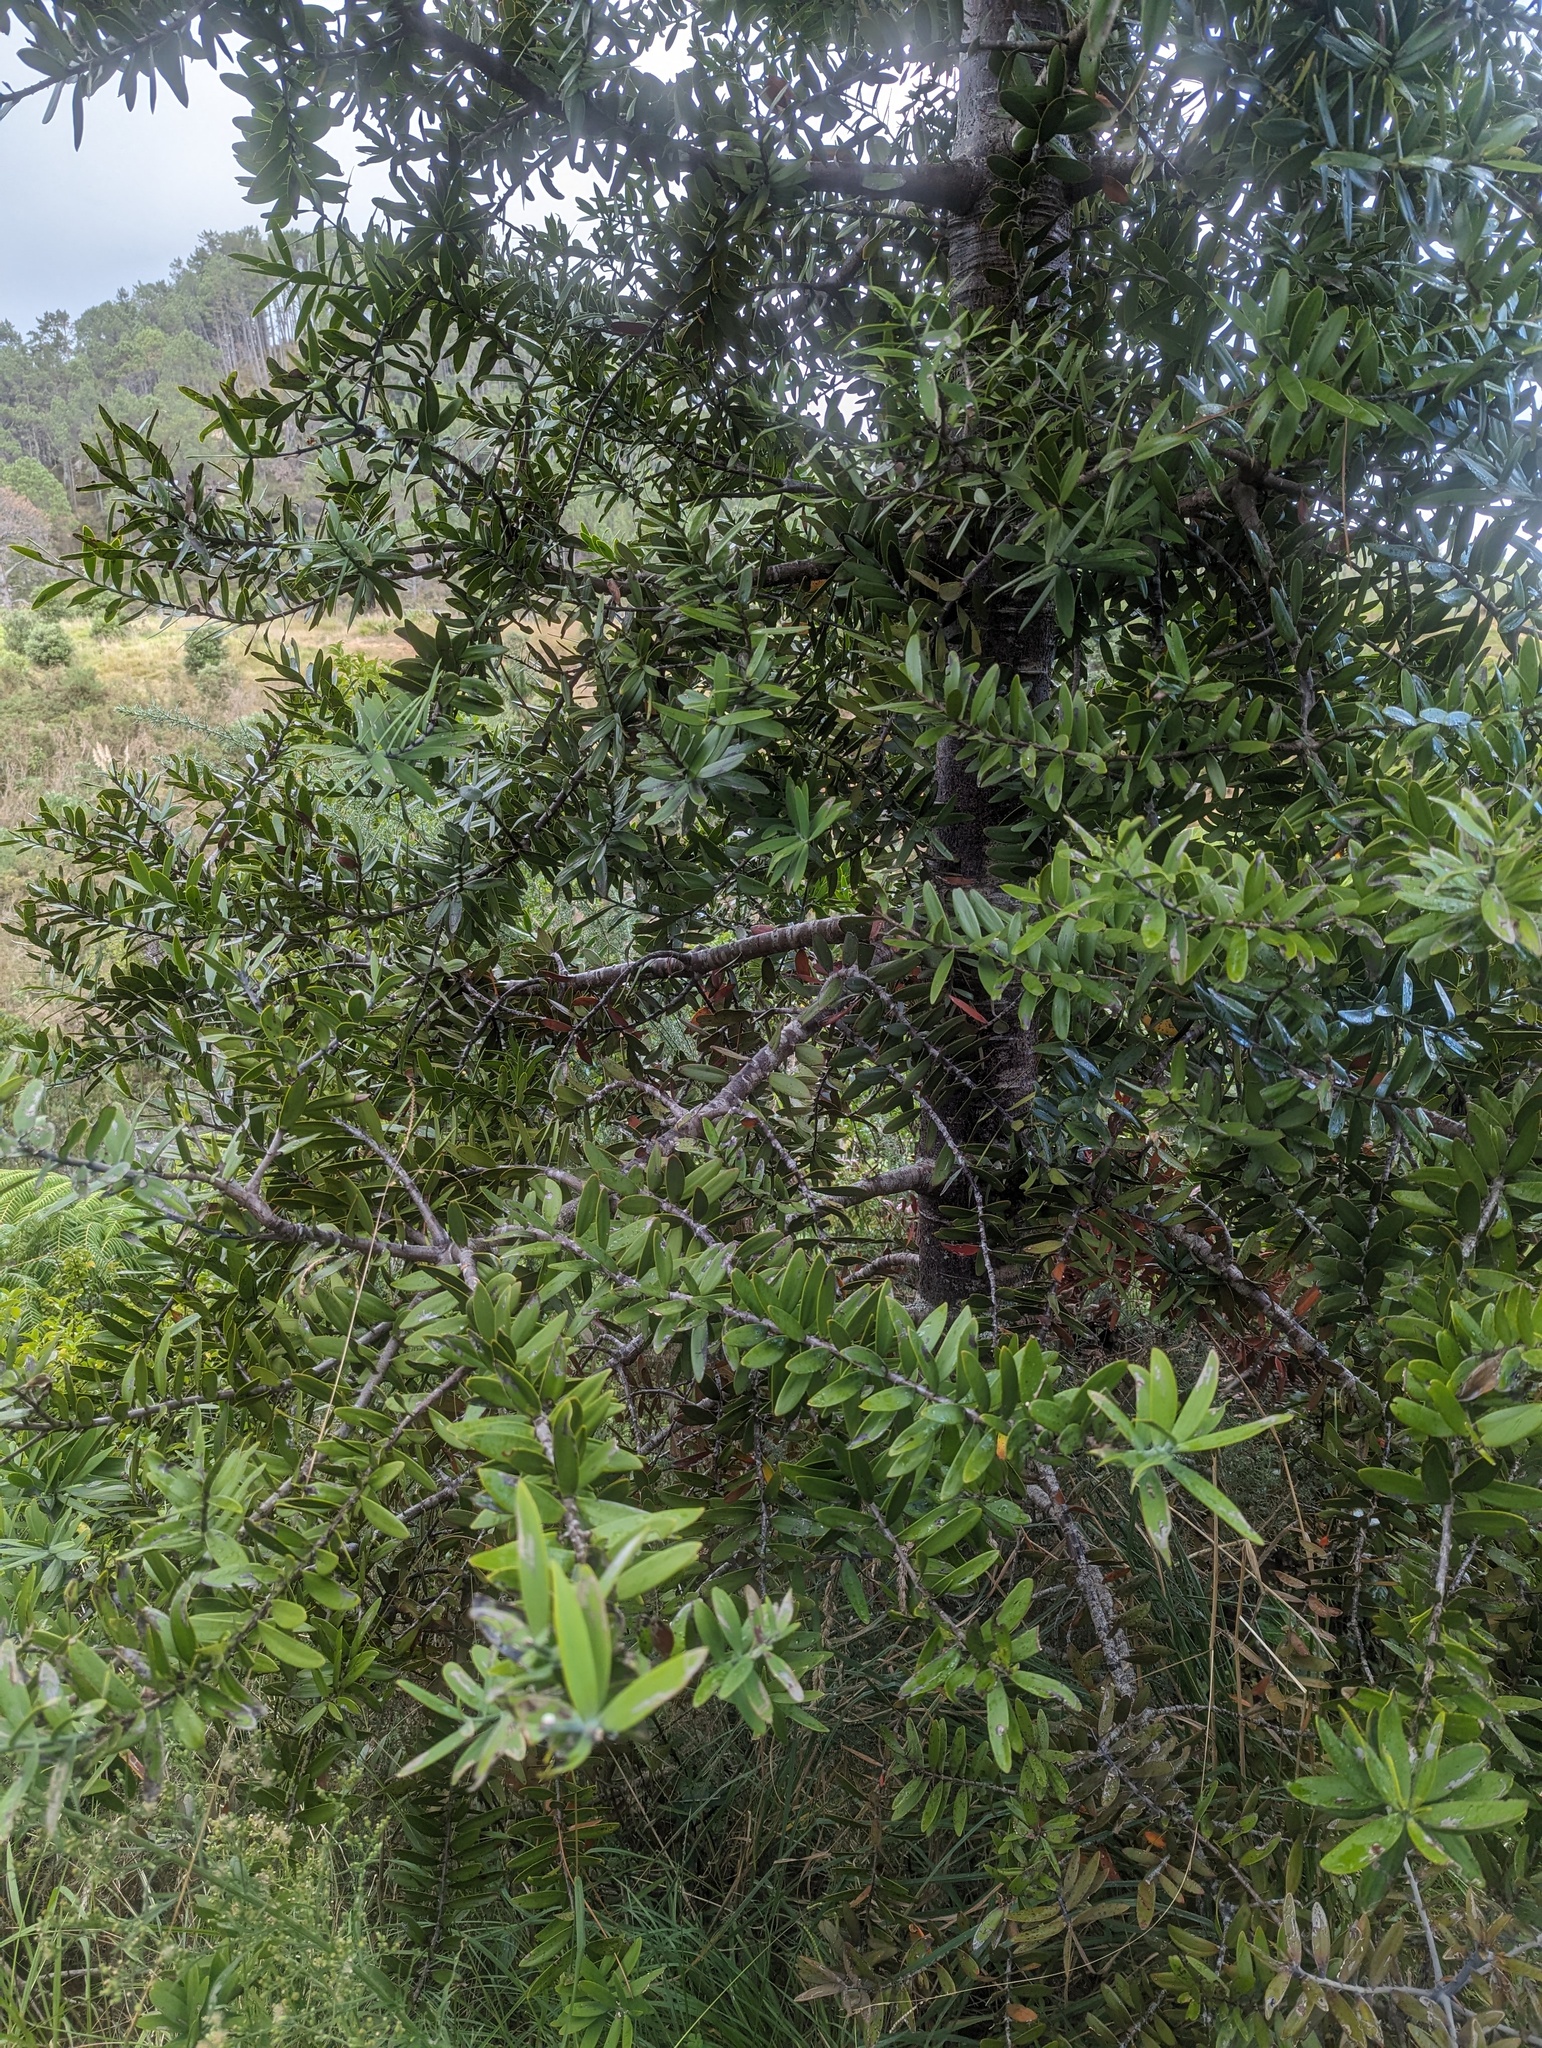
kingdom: Plantae
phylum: Tracheophyta
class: Pinopsida
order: Pinales
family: Araucariaceae
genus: Agathis
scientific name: Agathis australis
